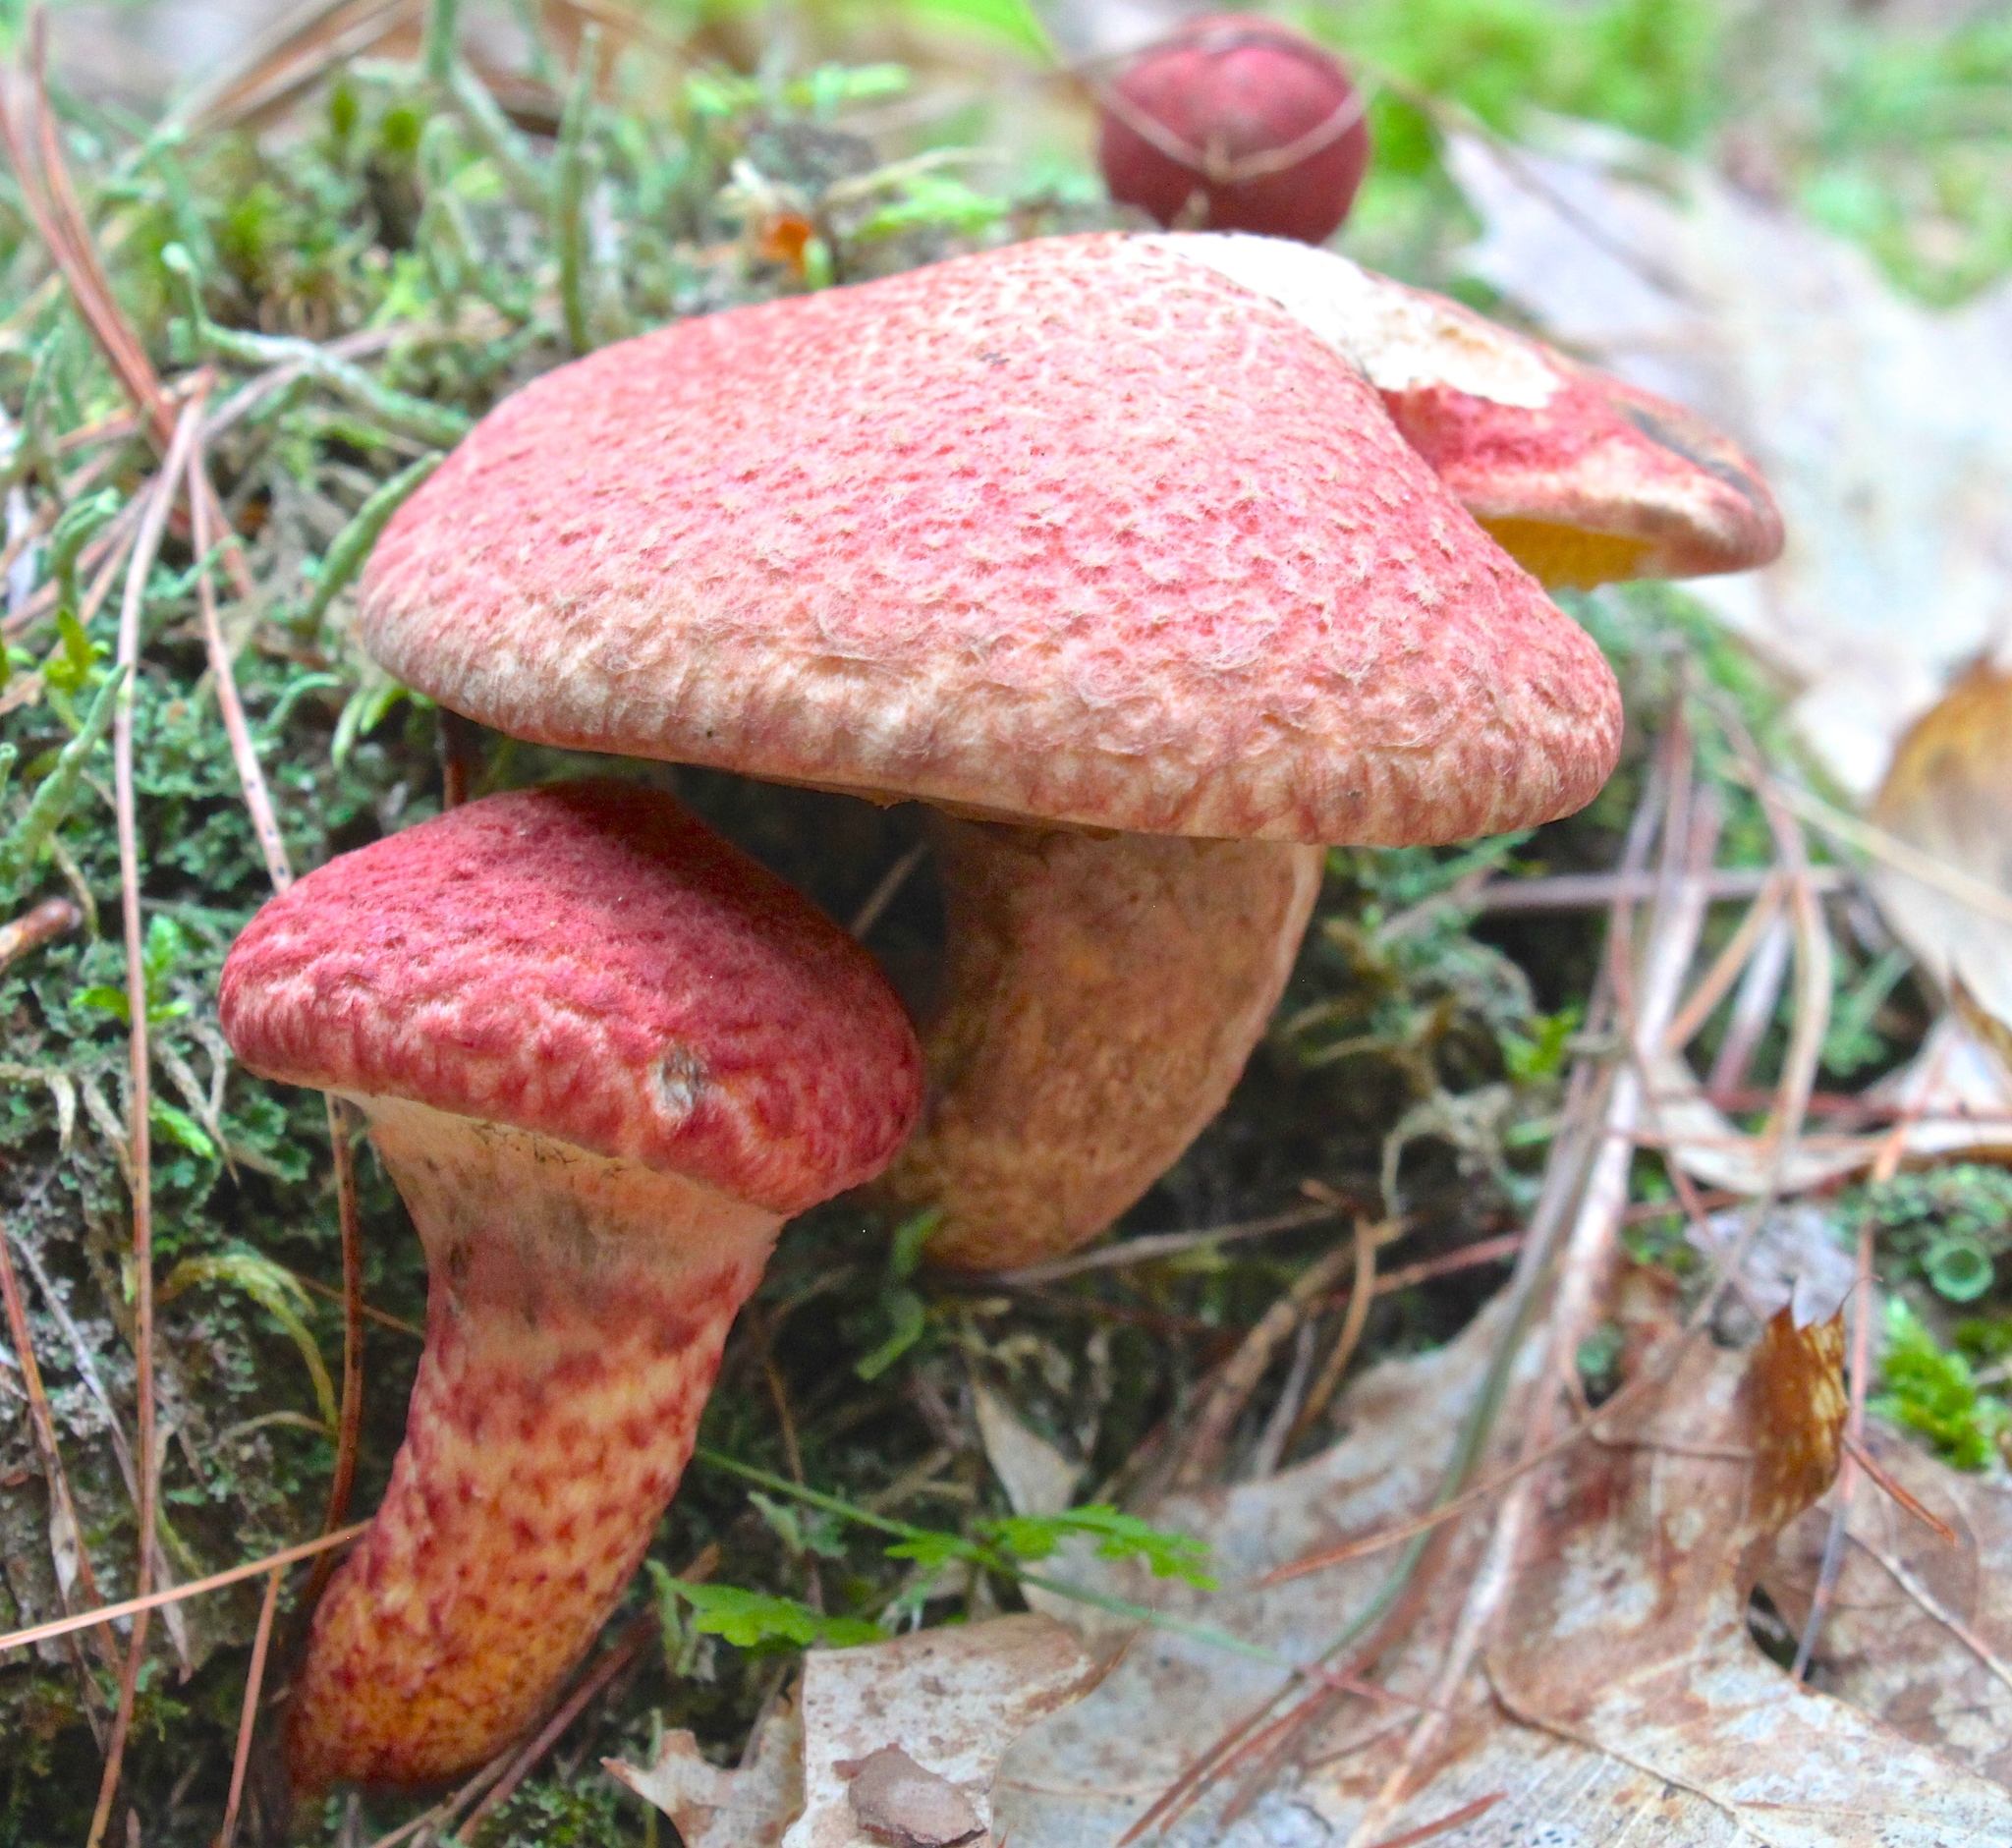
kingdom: Fungi
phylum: Basidiomycota
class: Agaricomycetes
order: Boletales
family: Suillaceae
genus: Suillus
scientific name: Suillus spraguei
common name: Painted suillus
